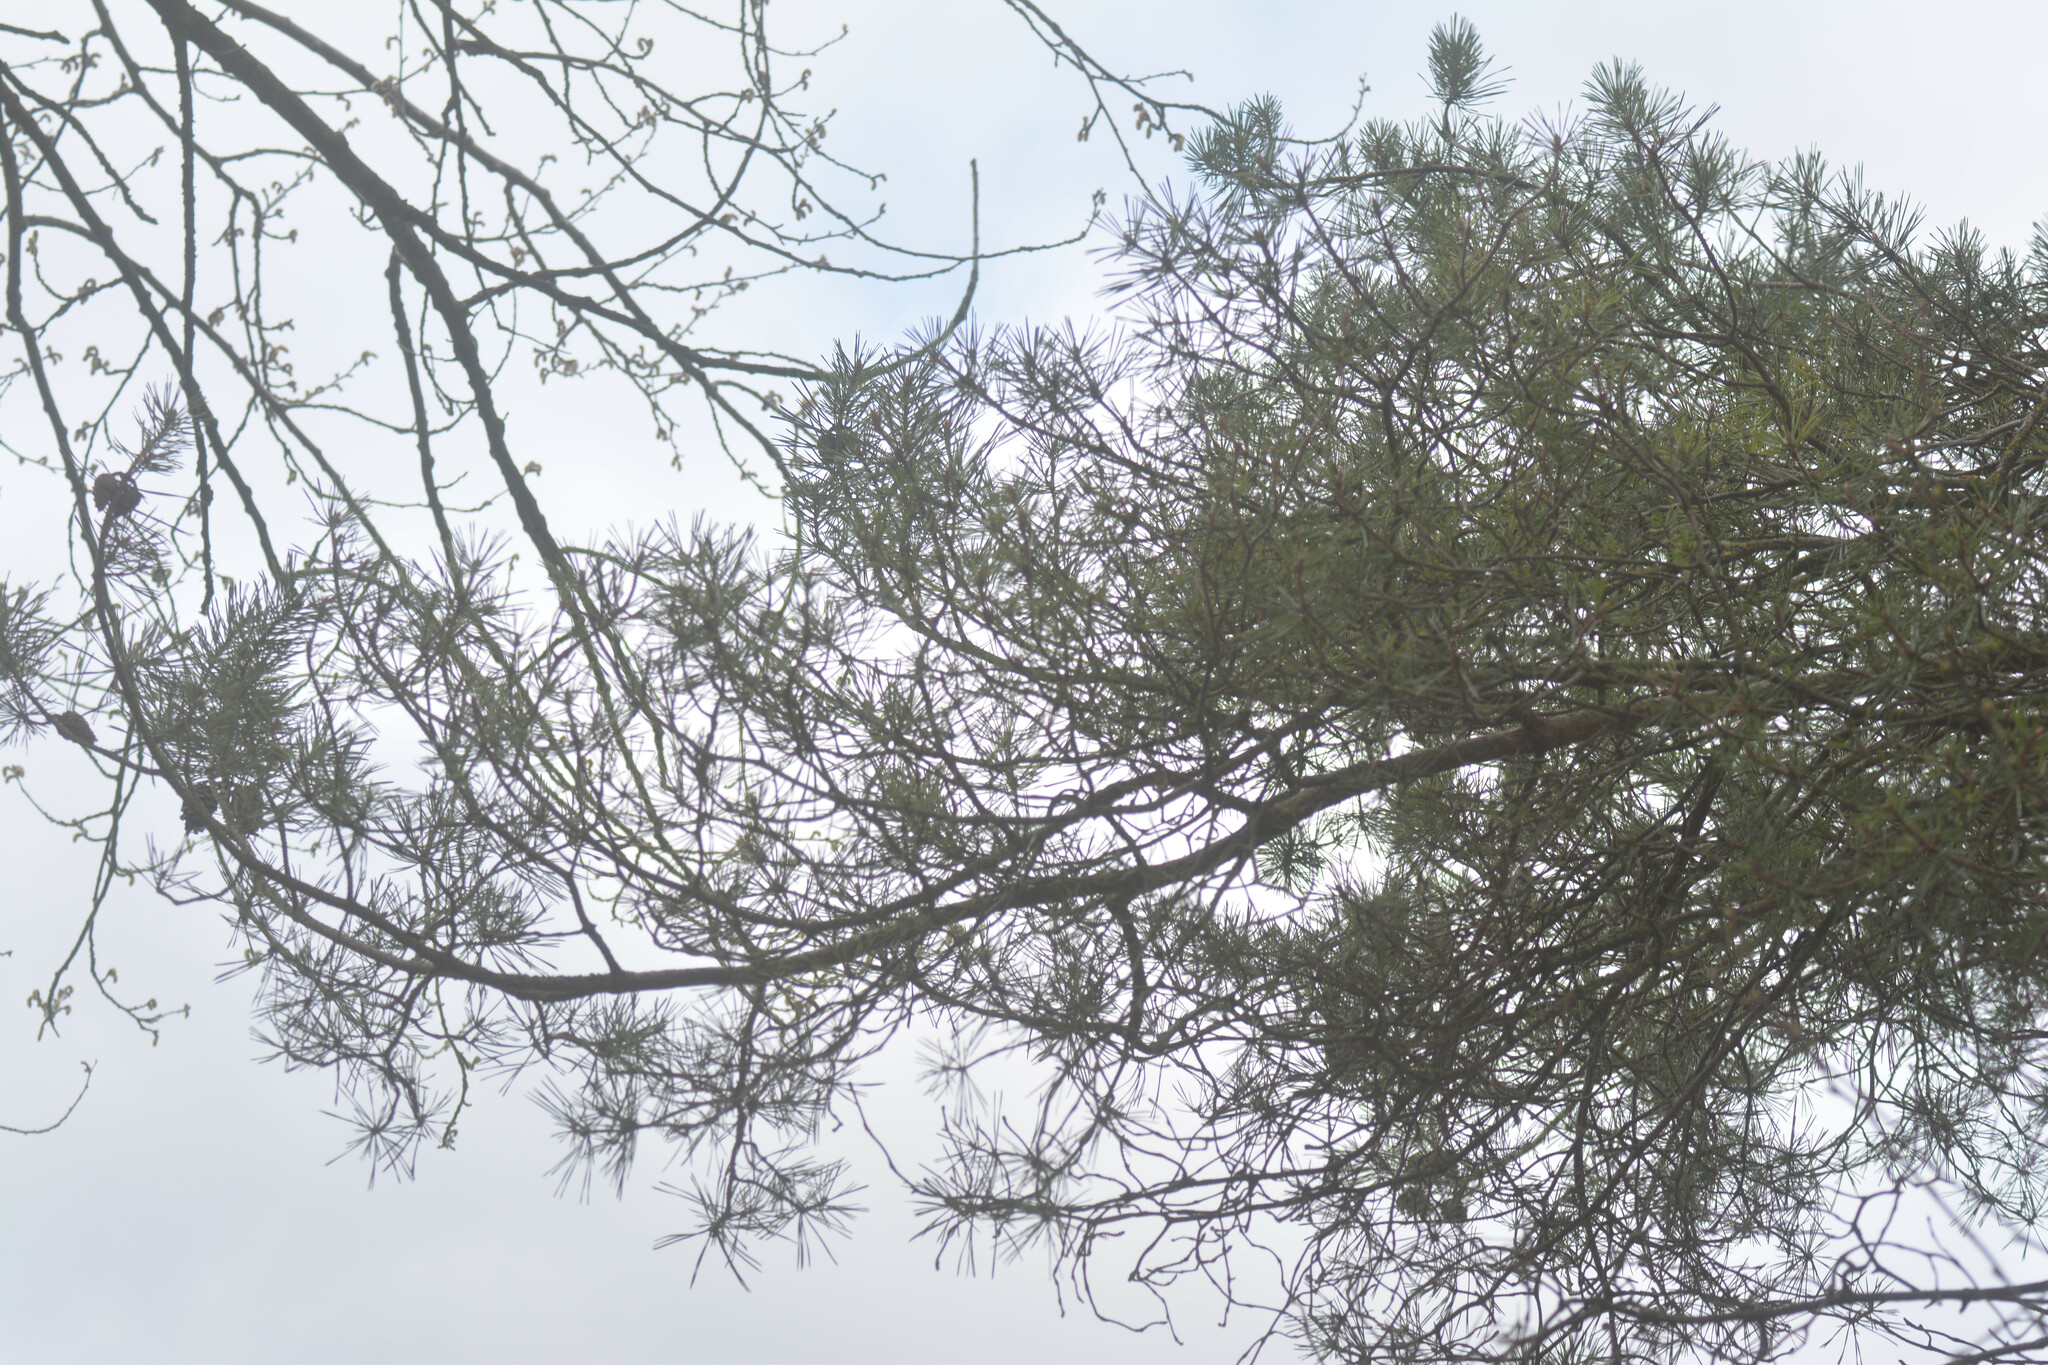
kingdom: Plantae
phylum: Tracheophyta
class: Pinopsida
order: Pinales
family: Pinaceae
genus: Pinus
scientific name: Pinus sylvestris
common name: Scots pine
